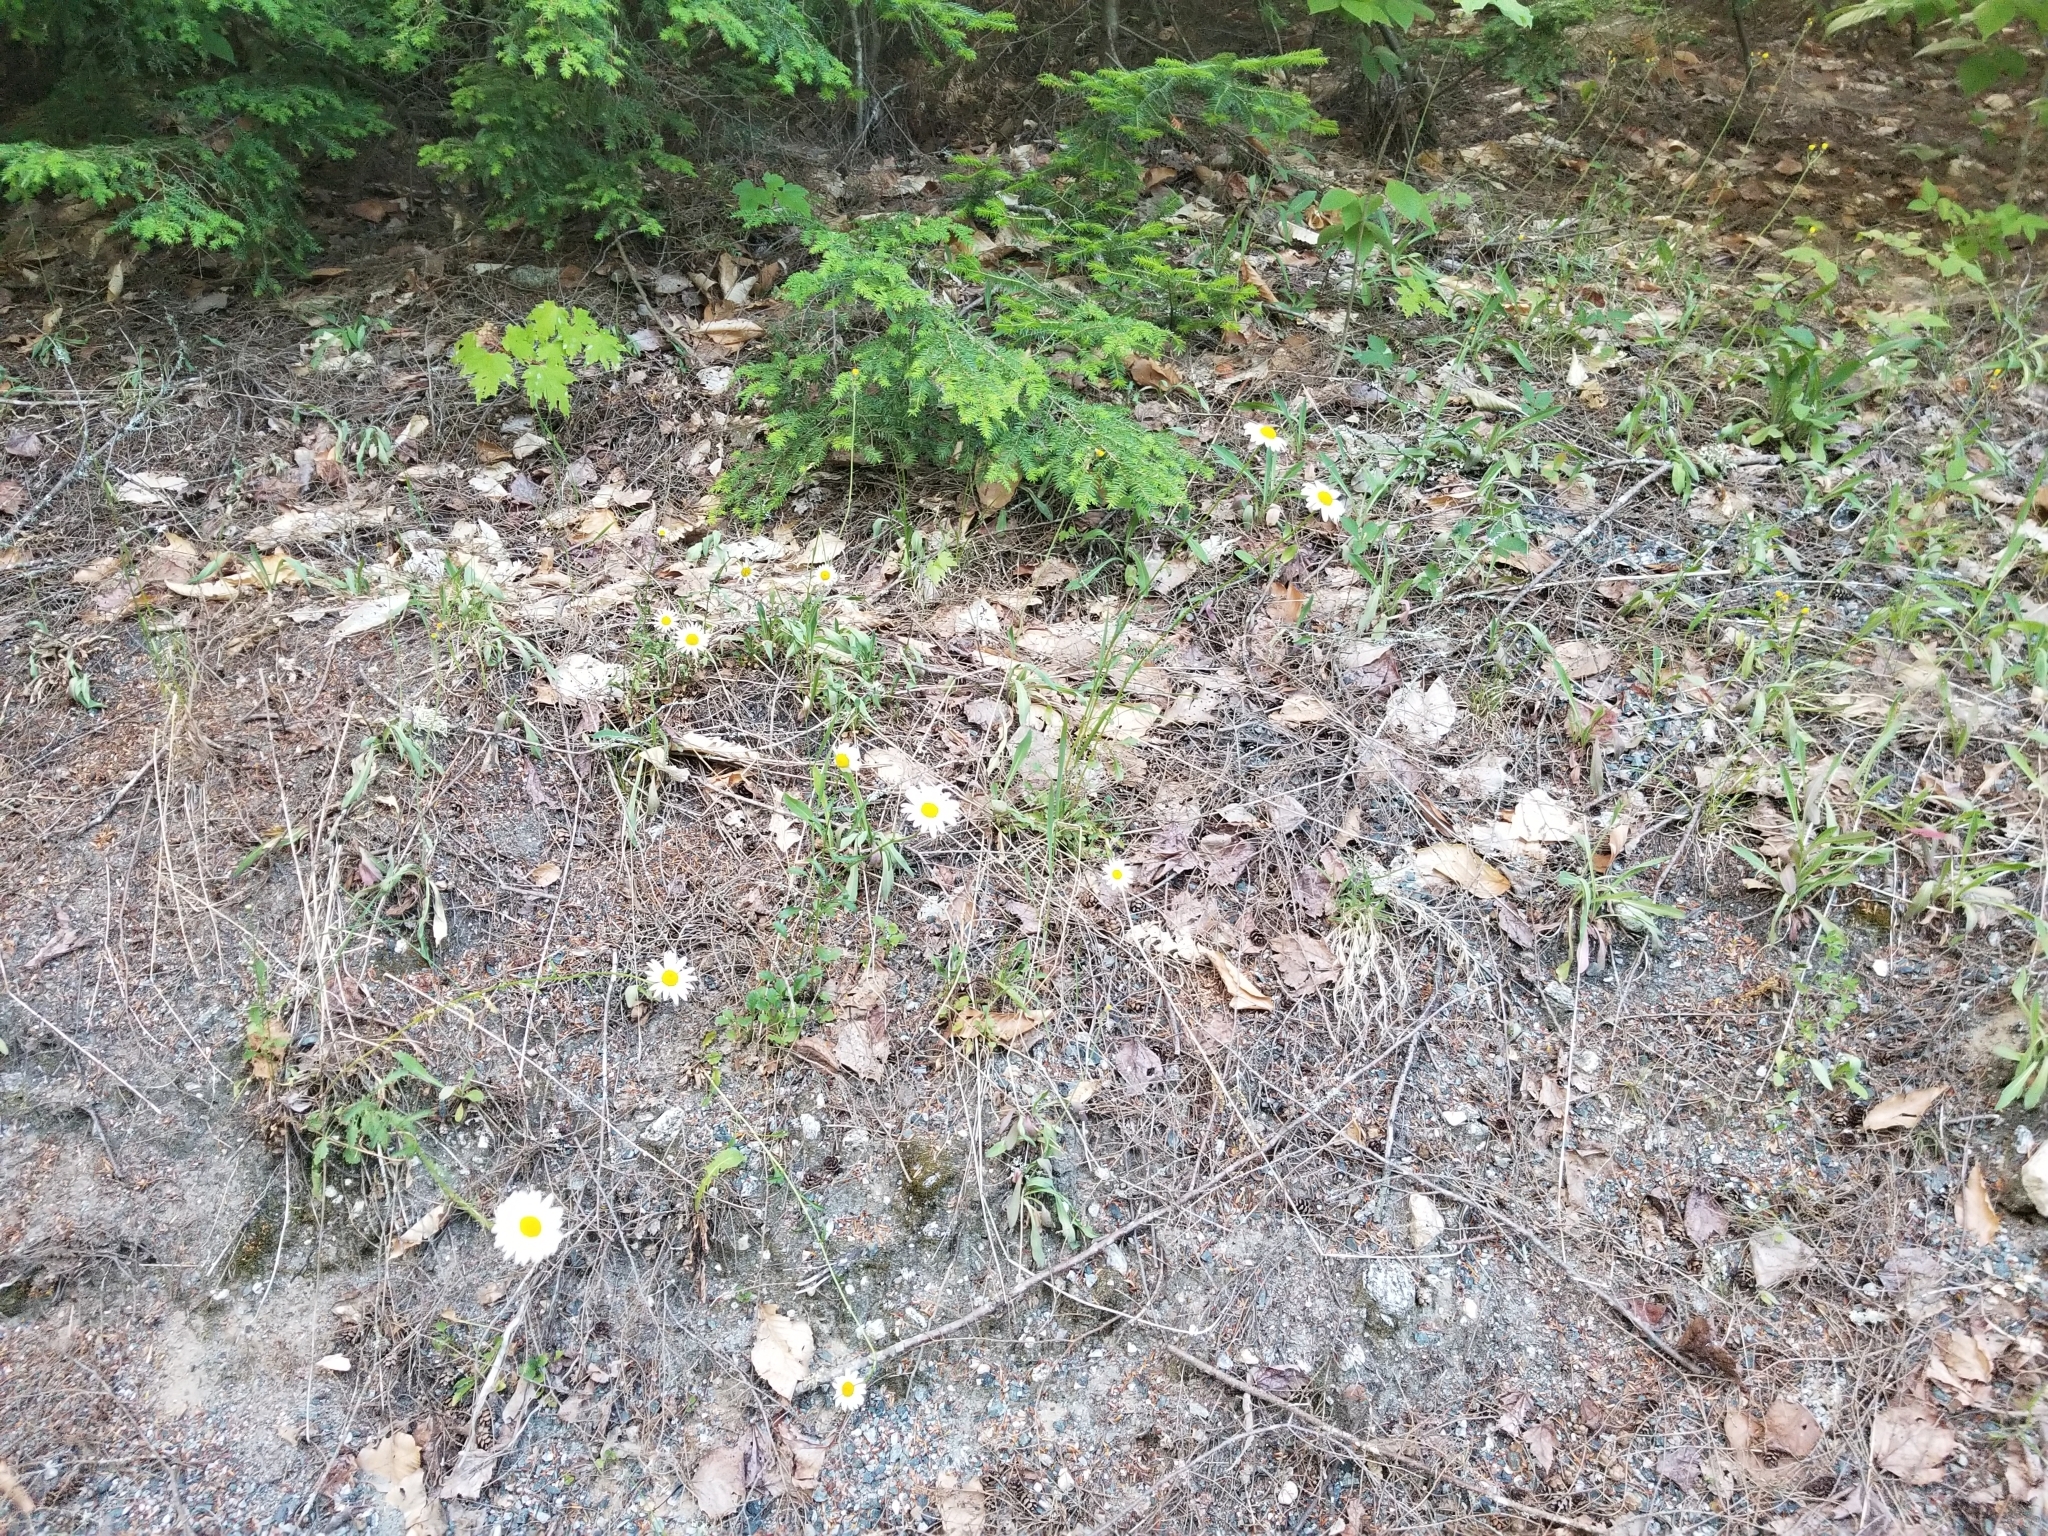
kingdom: Plantae
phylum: Tracheophyta
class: Magnoliopsida
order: Asterales
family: Asteraceae
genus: Leucanthemum
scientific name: Leucanthemum vulgare
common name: Oxeye daisy
